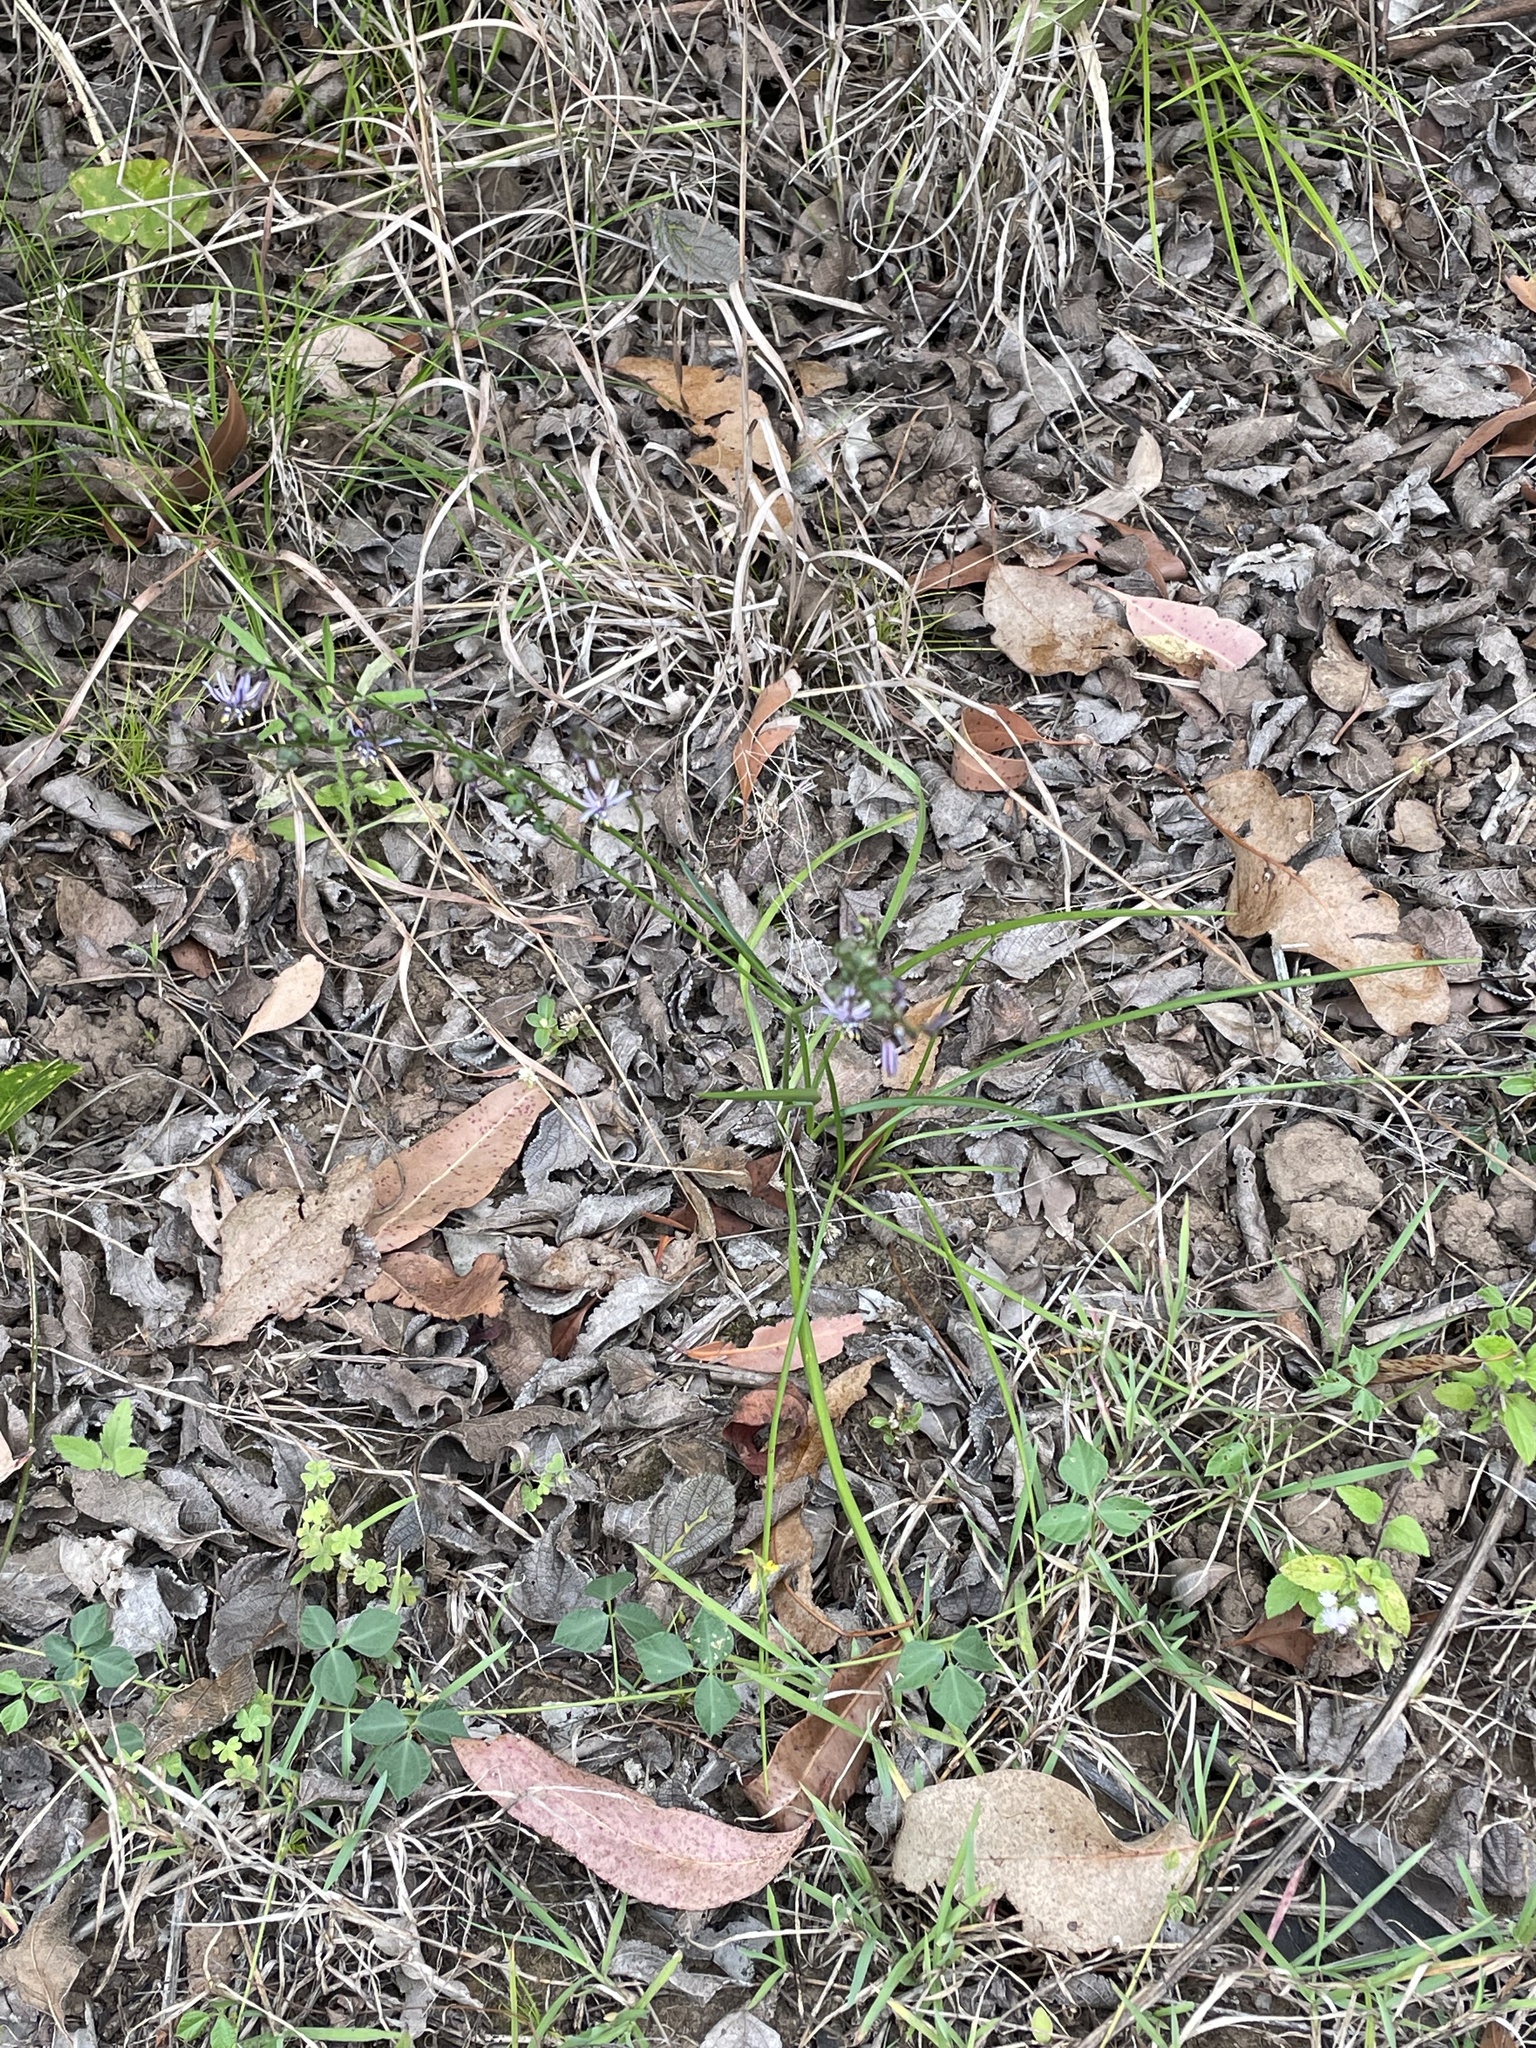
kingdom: Plantae
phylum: Tracheophyta
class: Liliopsida
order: Asparagales
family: Asphodelaceae
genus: Caesia
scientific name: Caesia chlorantha
